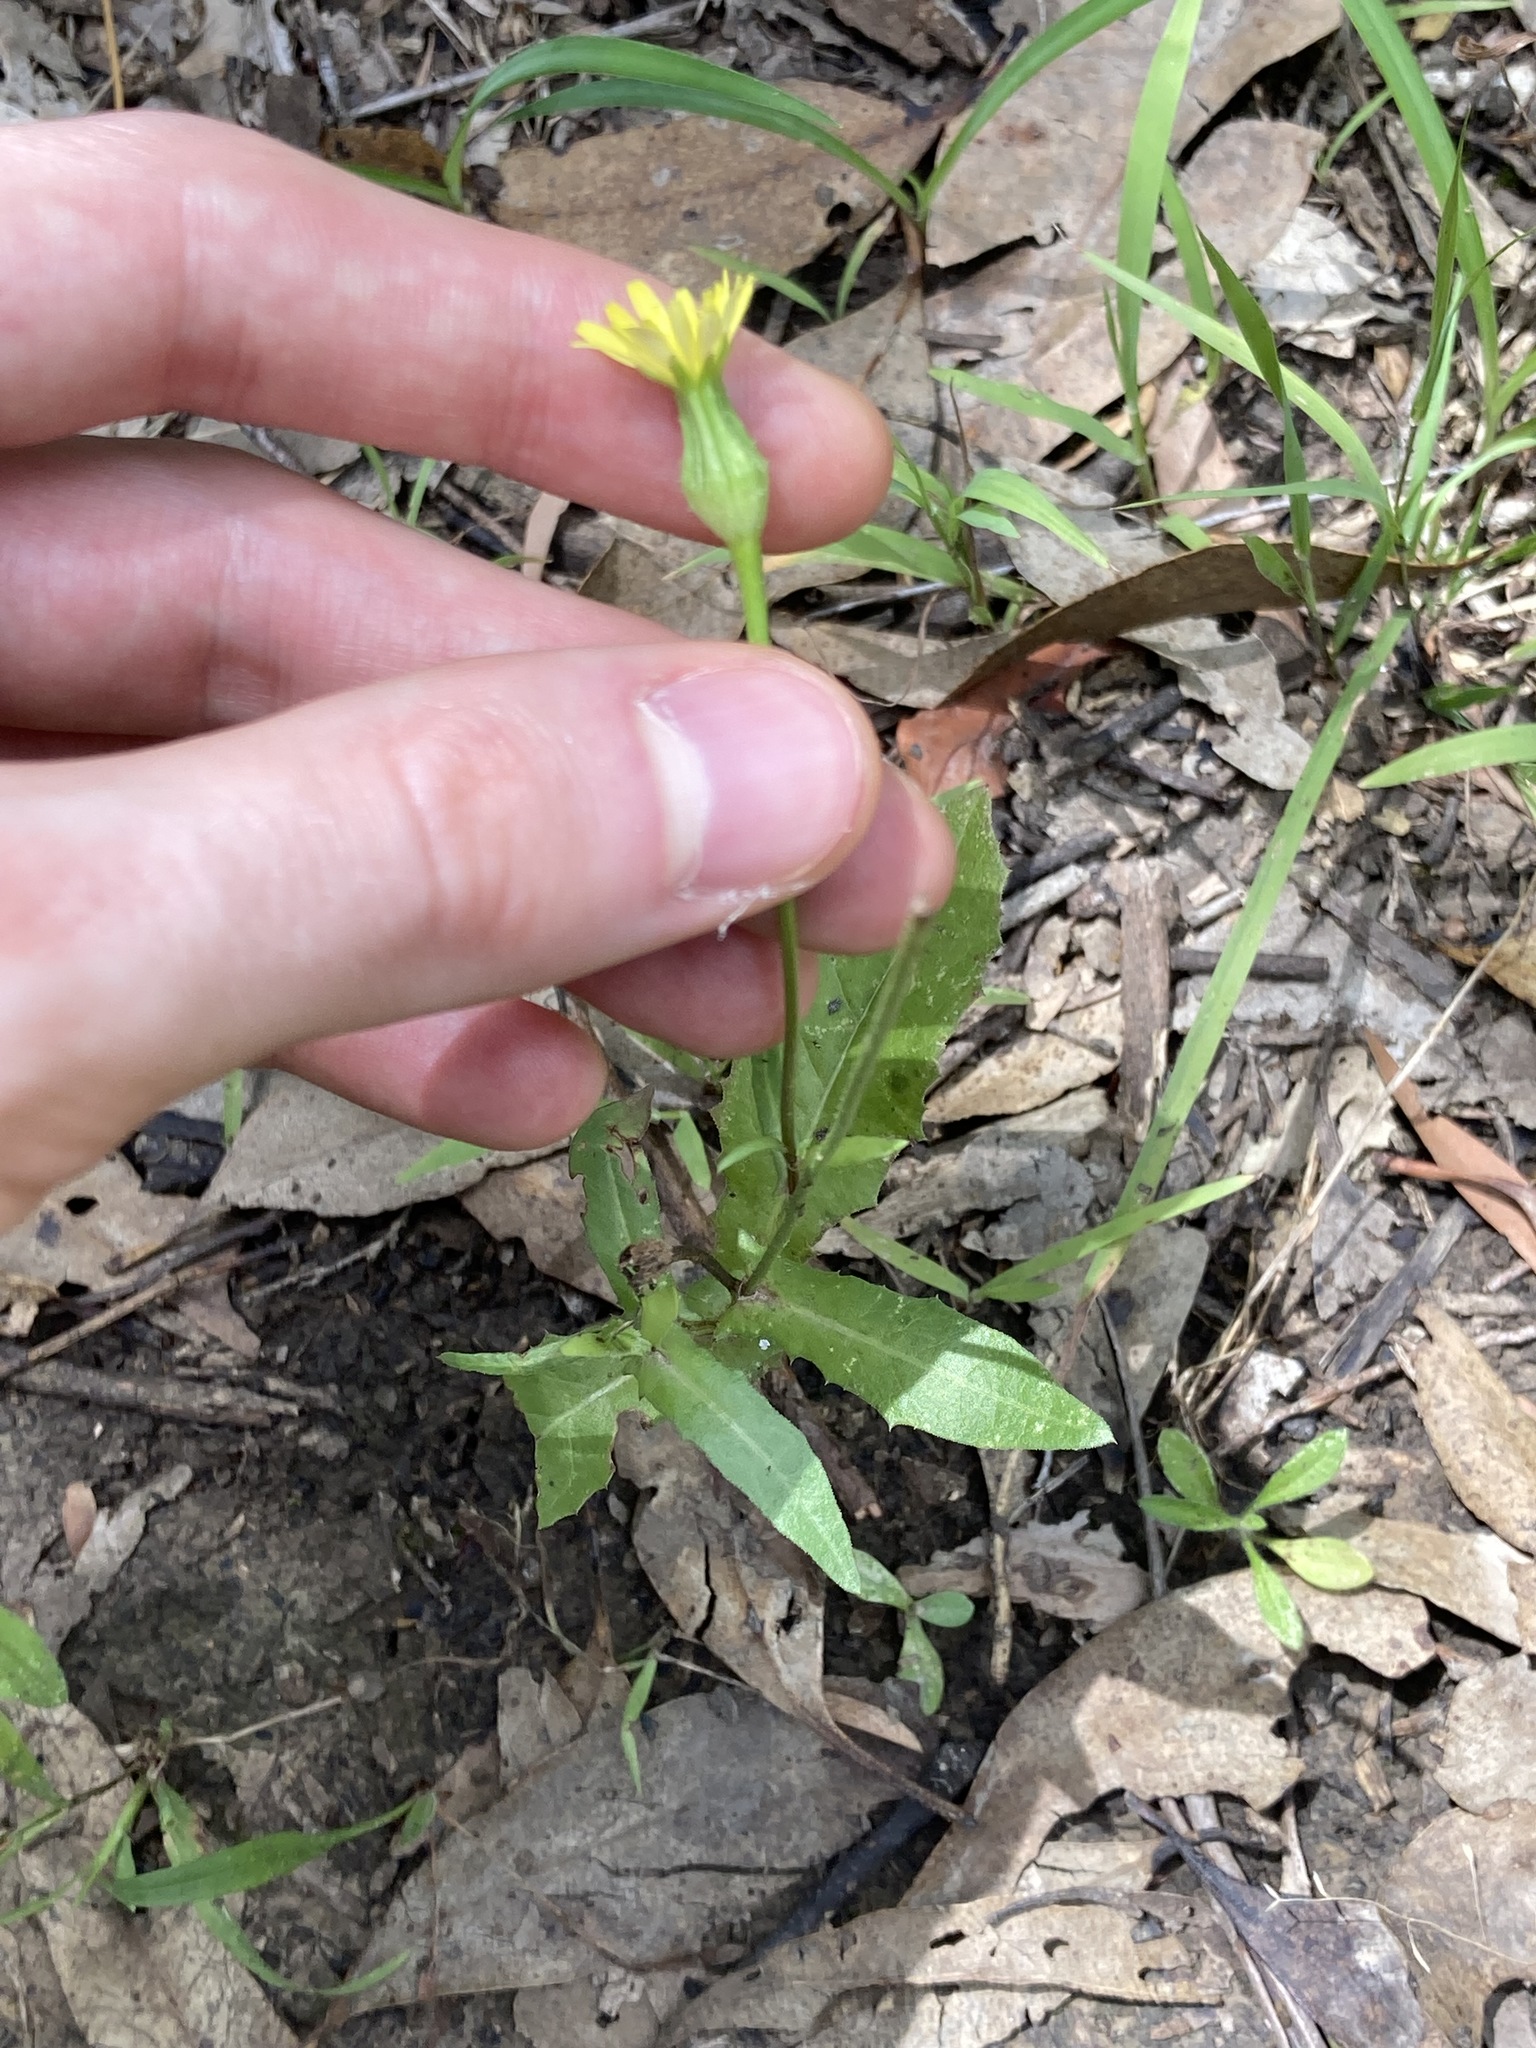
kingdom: Plantae
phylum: Tracheophyta
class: Magnoliopsida
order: Asterales
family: Asteraceae
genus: Urospermum
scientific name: Urospermum picroides
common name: False hawkbit
